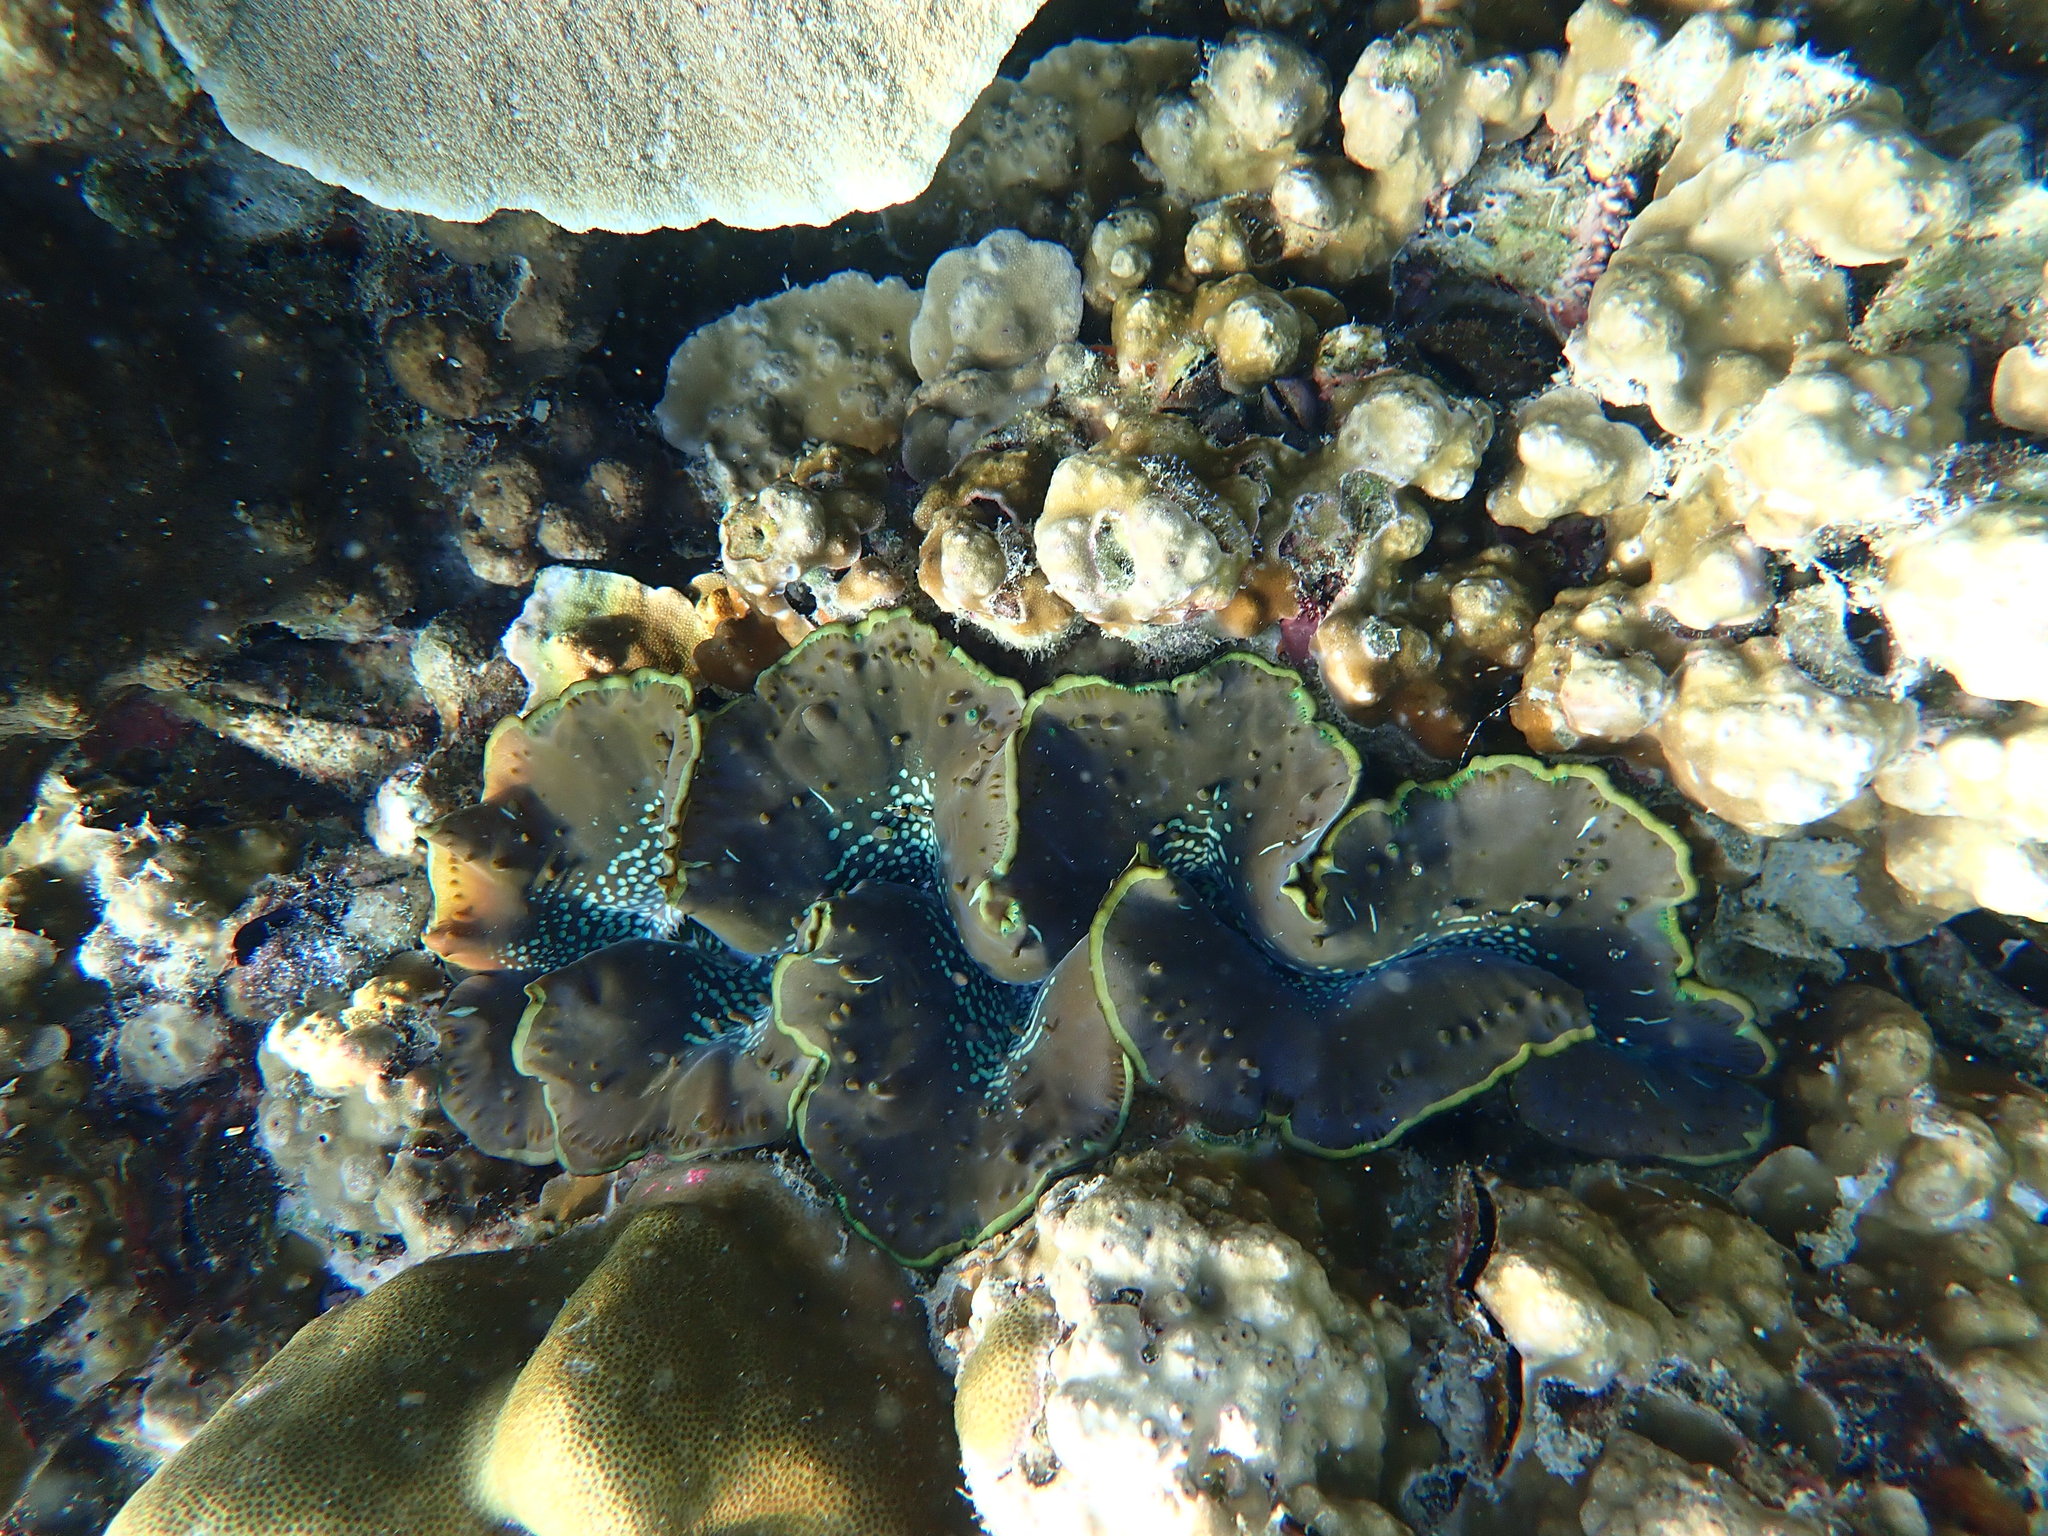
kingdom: Animalia
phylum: Mollusca
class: Bivalvia
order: Cardiida
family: Cardiidae
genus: Tridacna
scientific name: Tridacna maxima
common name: Small giant clam
